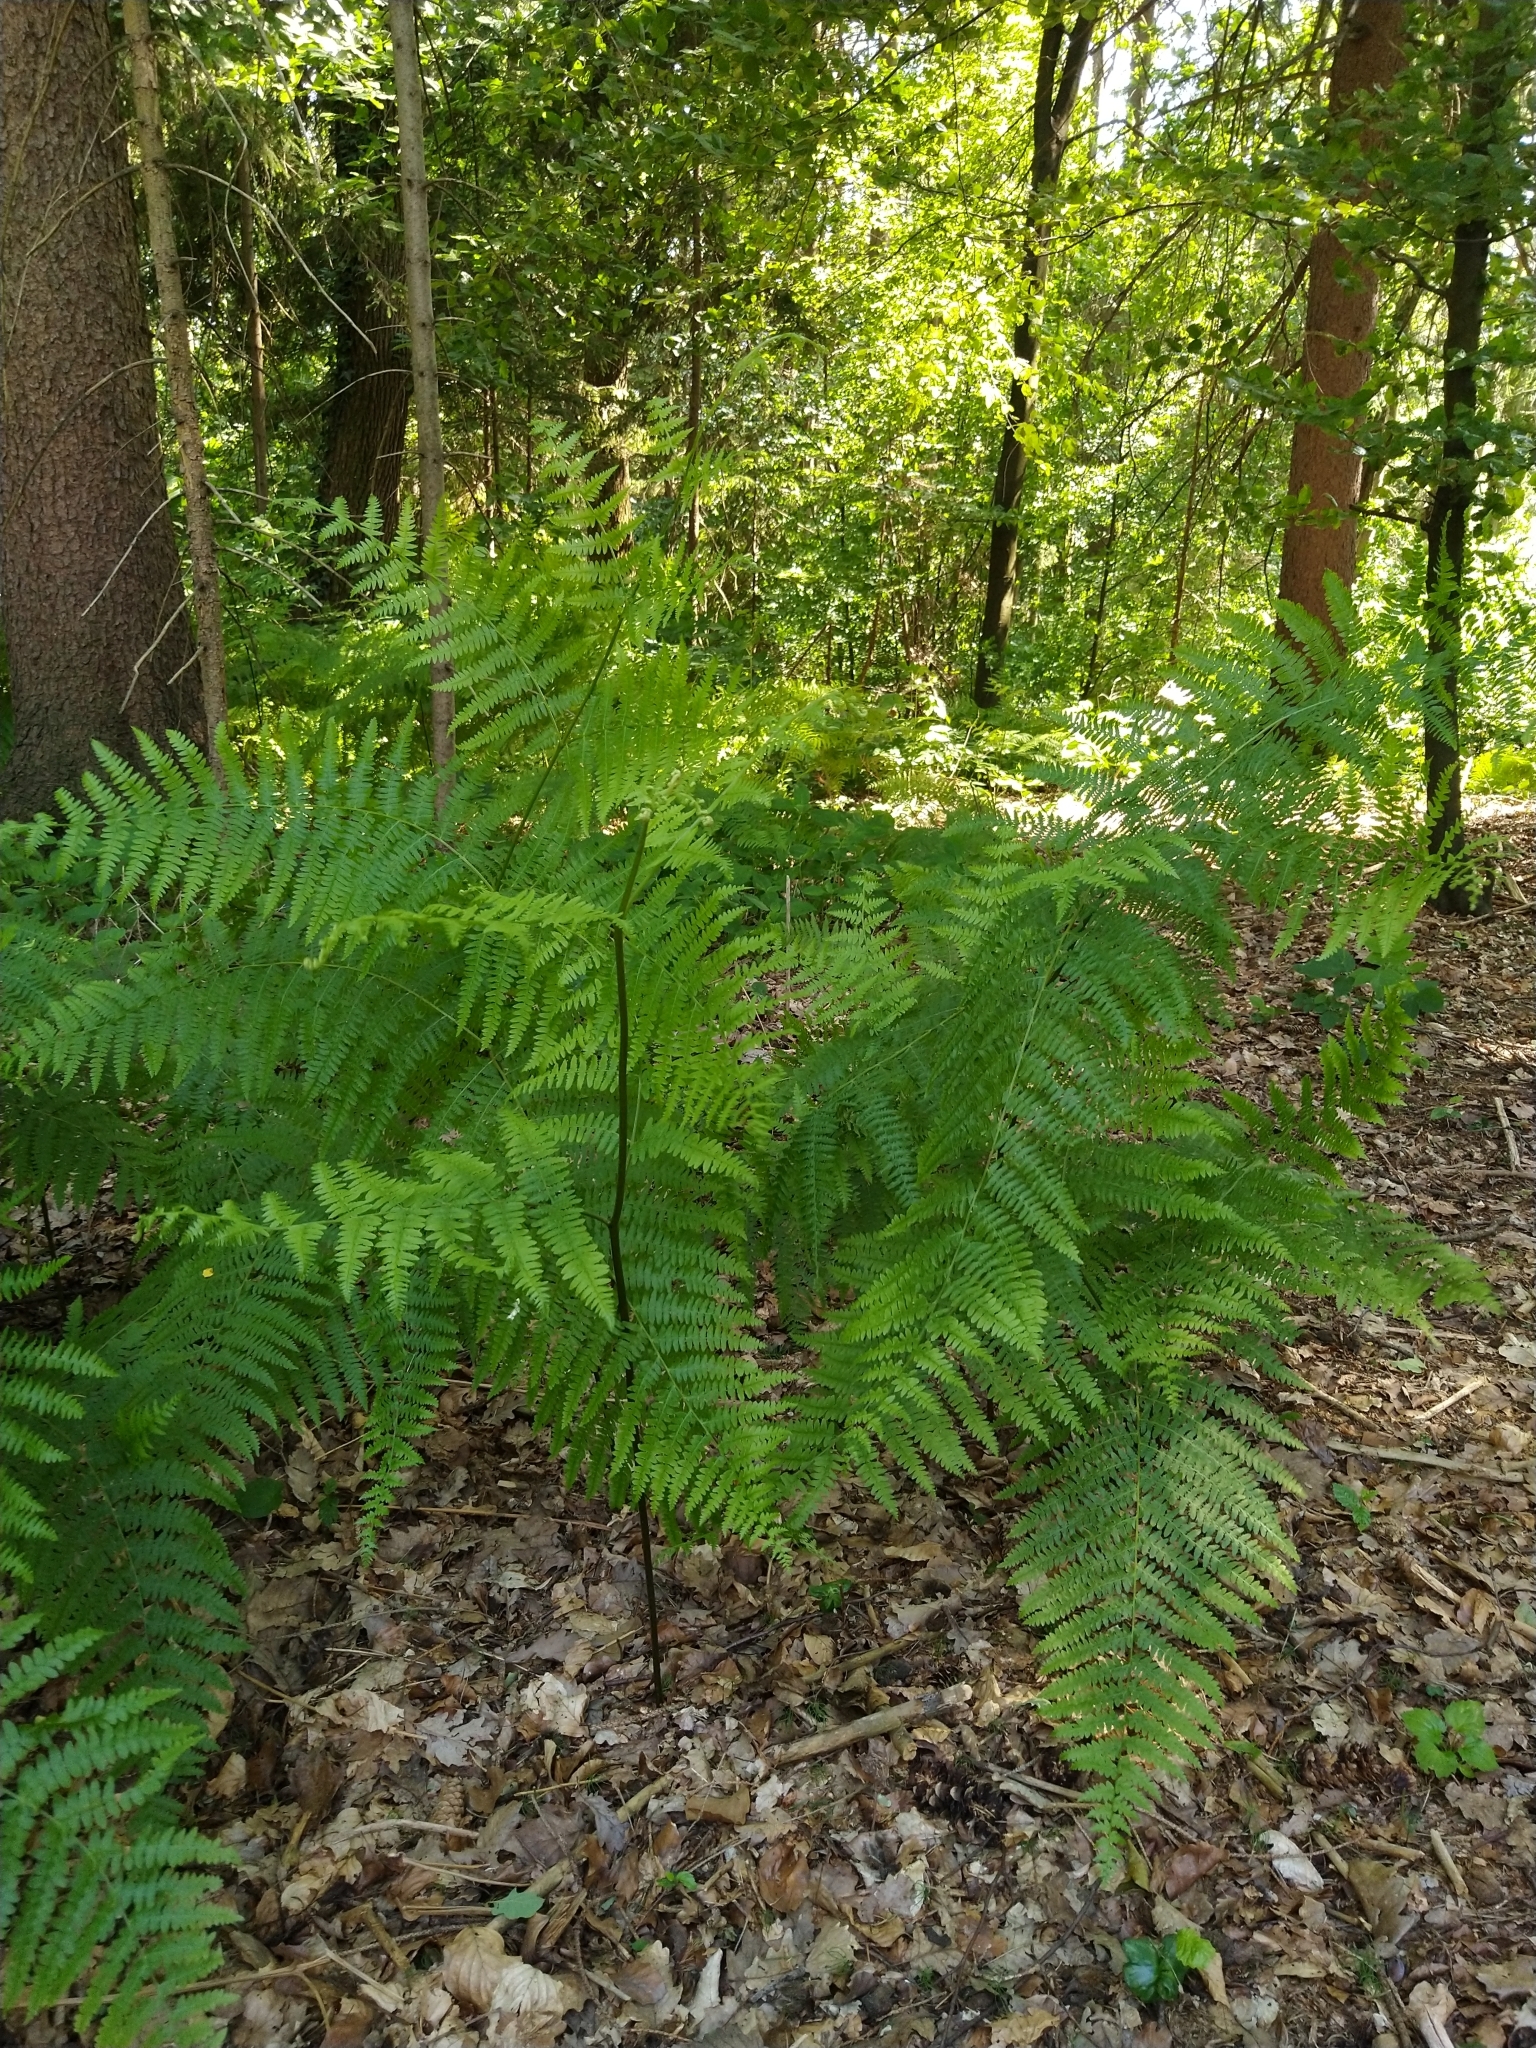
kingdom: Plantae
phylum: Tracheophyta
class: Polypodiopsida
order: Polypodiales
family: Dennstaedtiaceae
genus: Pteridium
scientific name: Pteridium aquilinum
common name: Bracken
